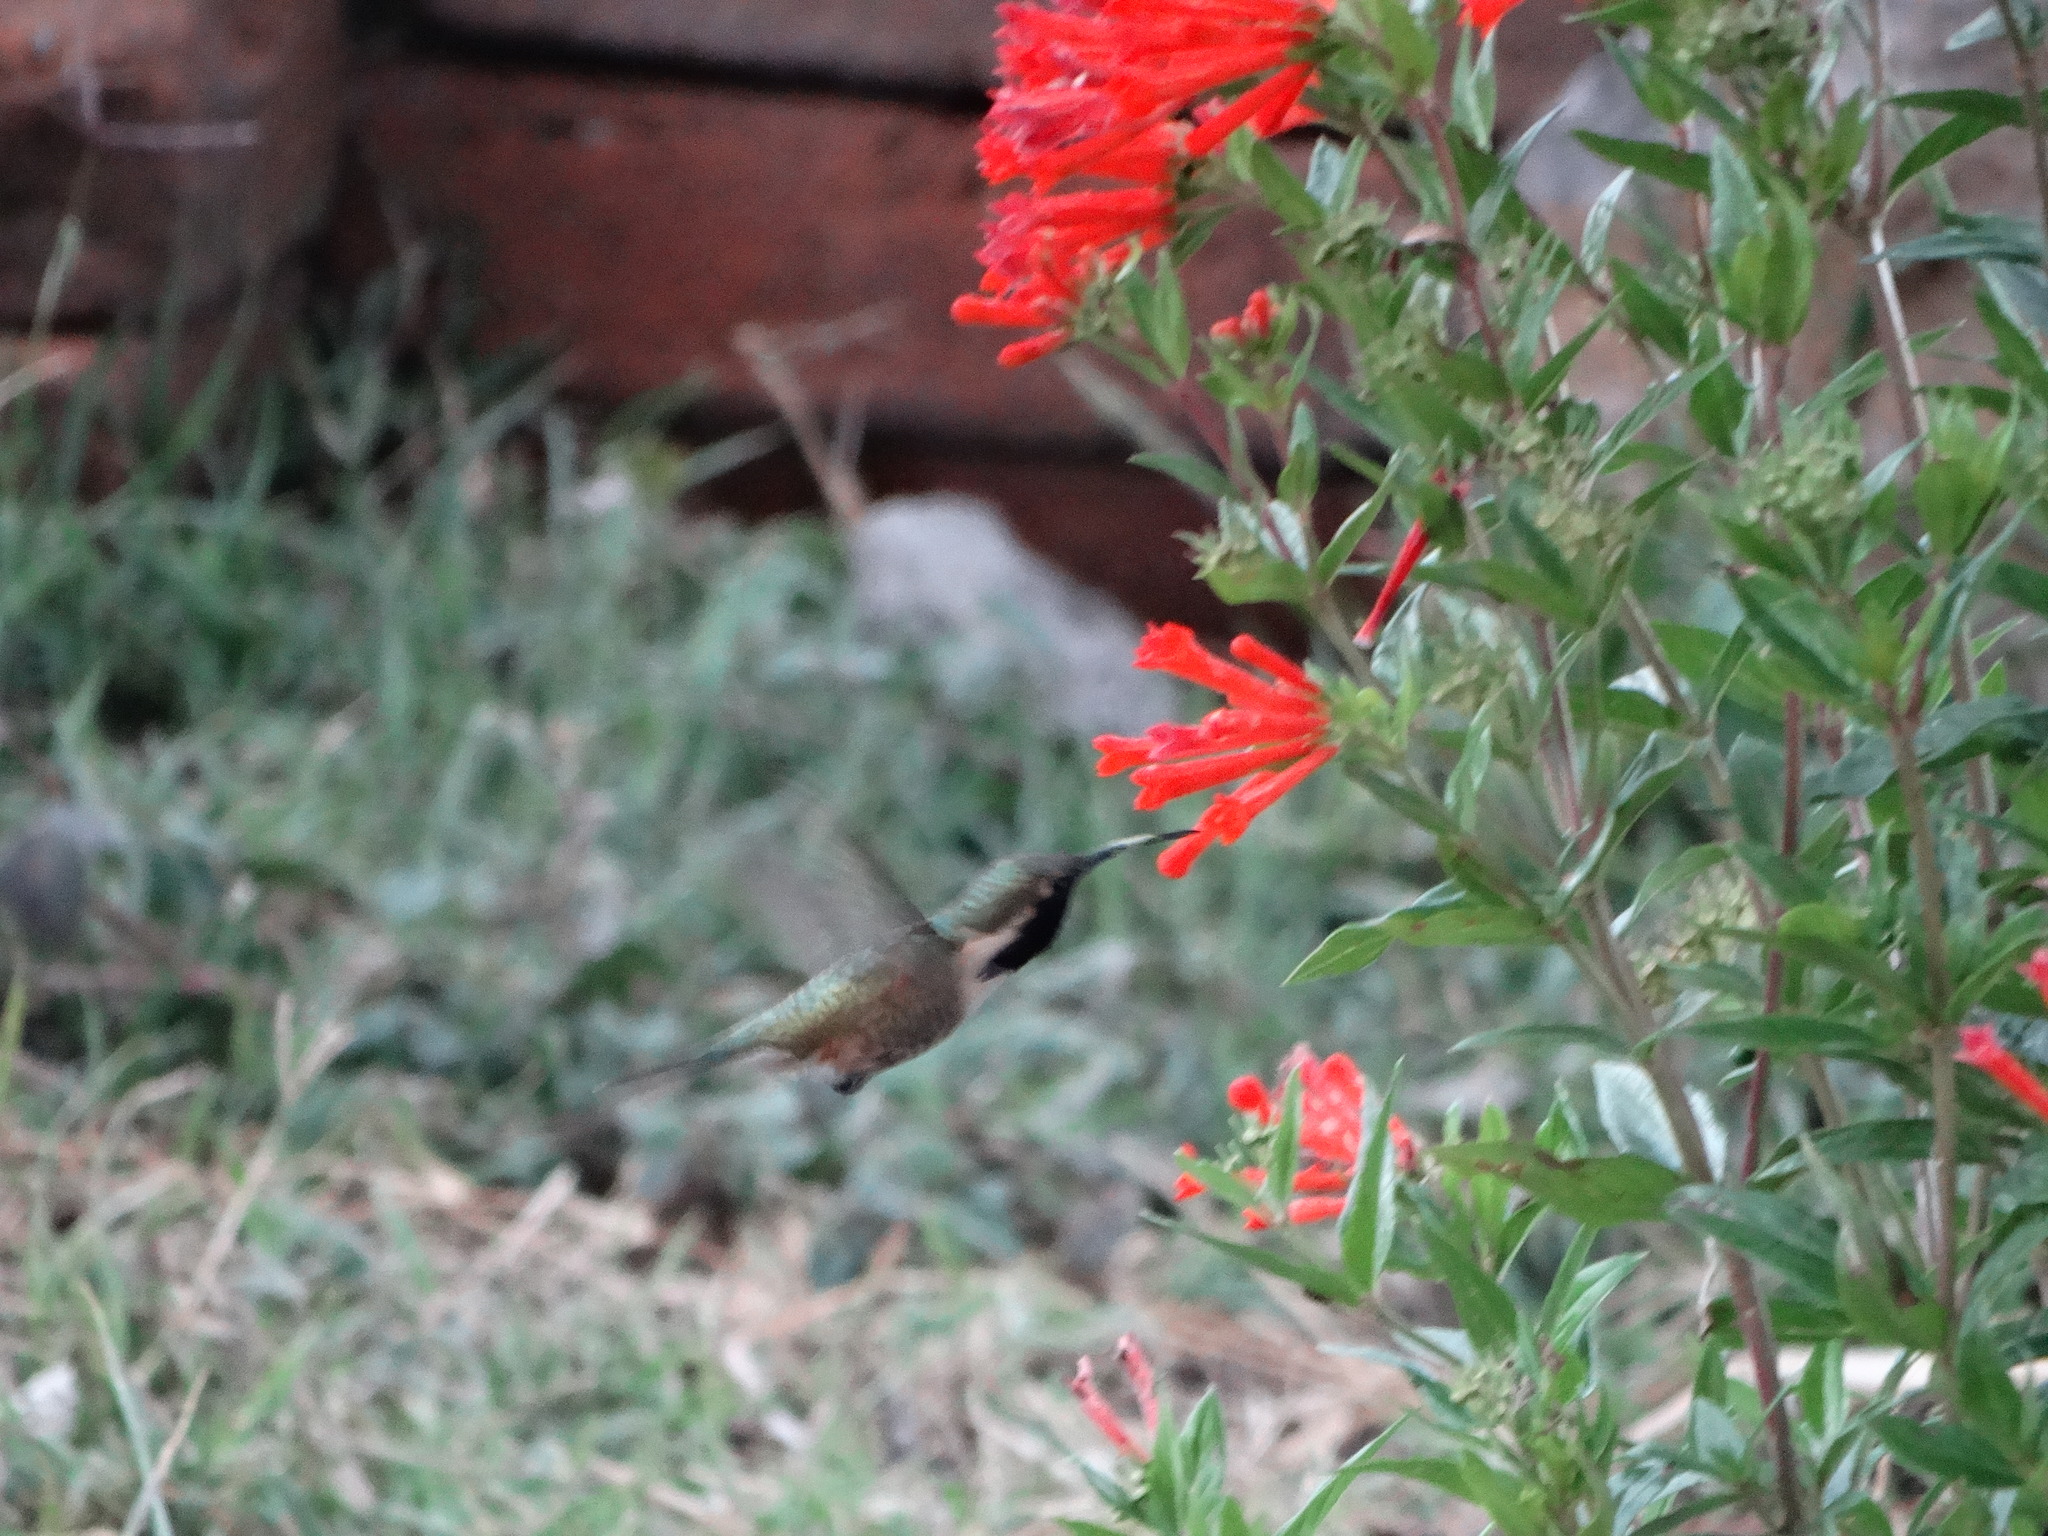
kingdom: Animalia
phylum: Chordata
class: Aves
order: Apodiformes
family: Trochilidae
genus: Calothorax
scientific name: Calothorax lucifer
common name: Lucifer sheartail
